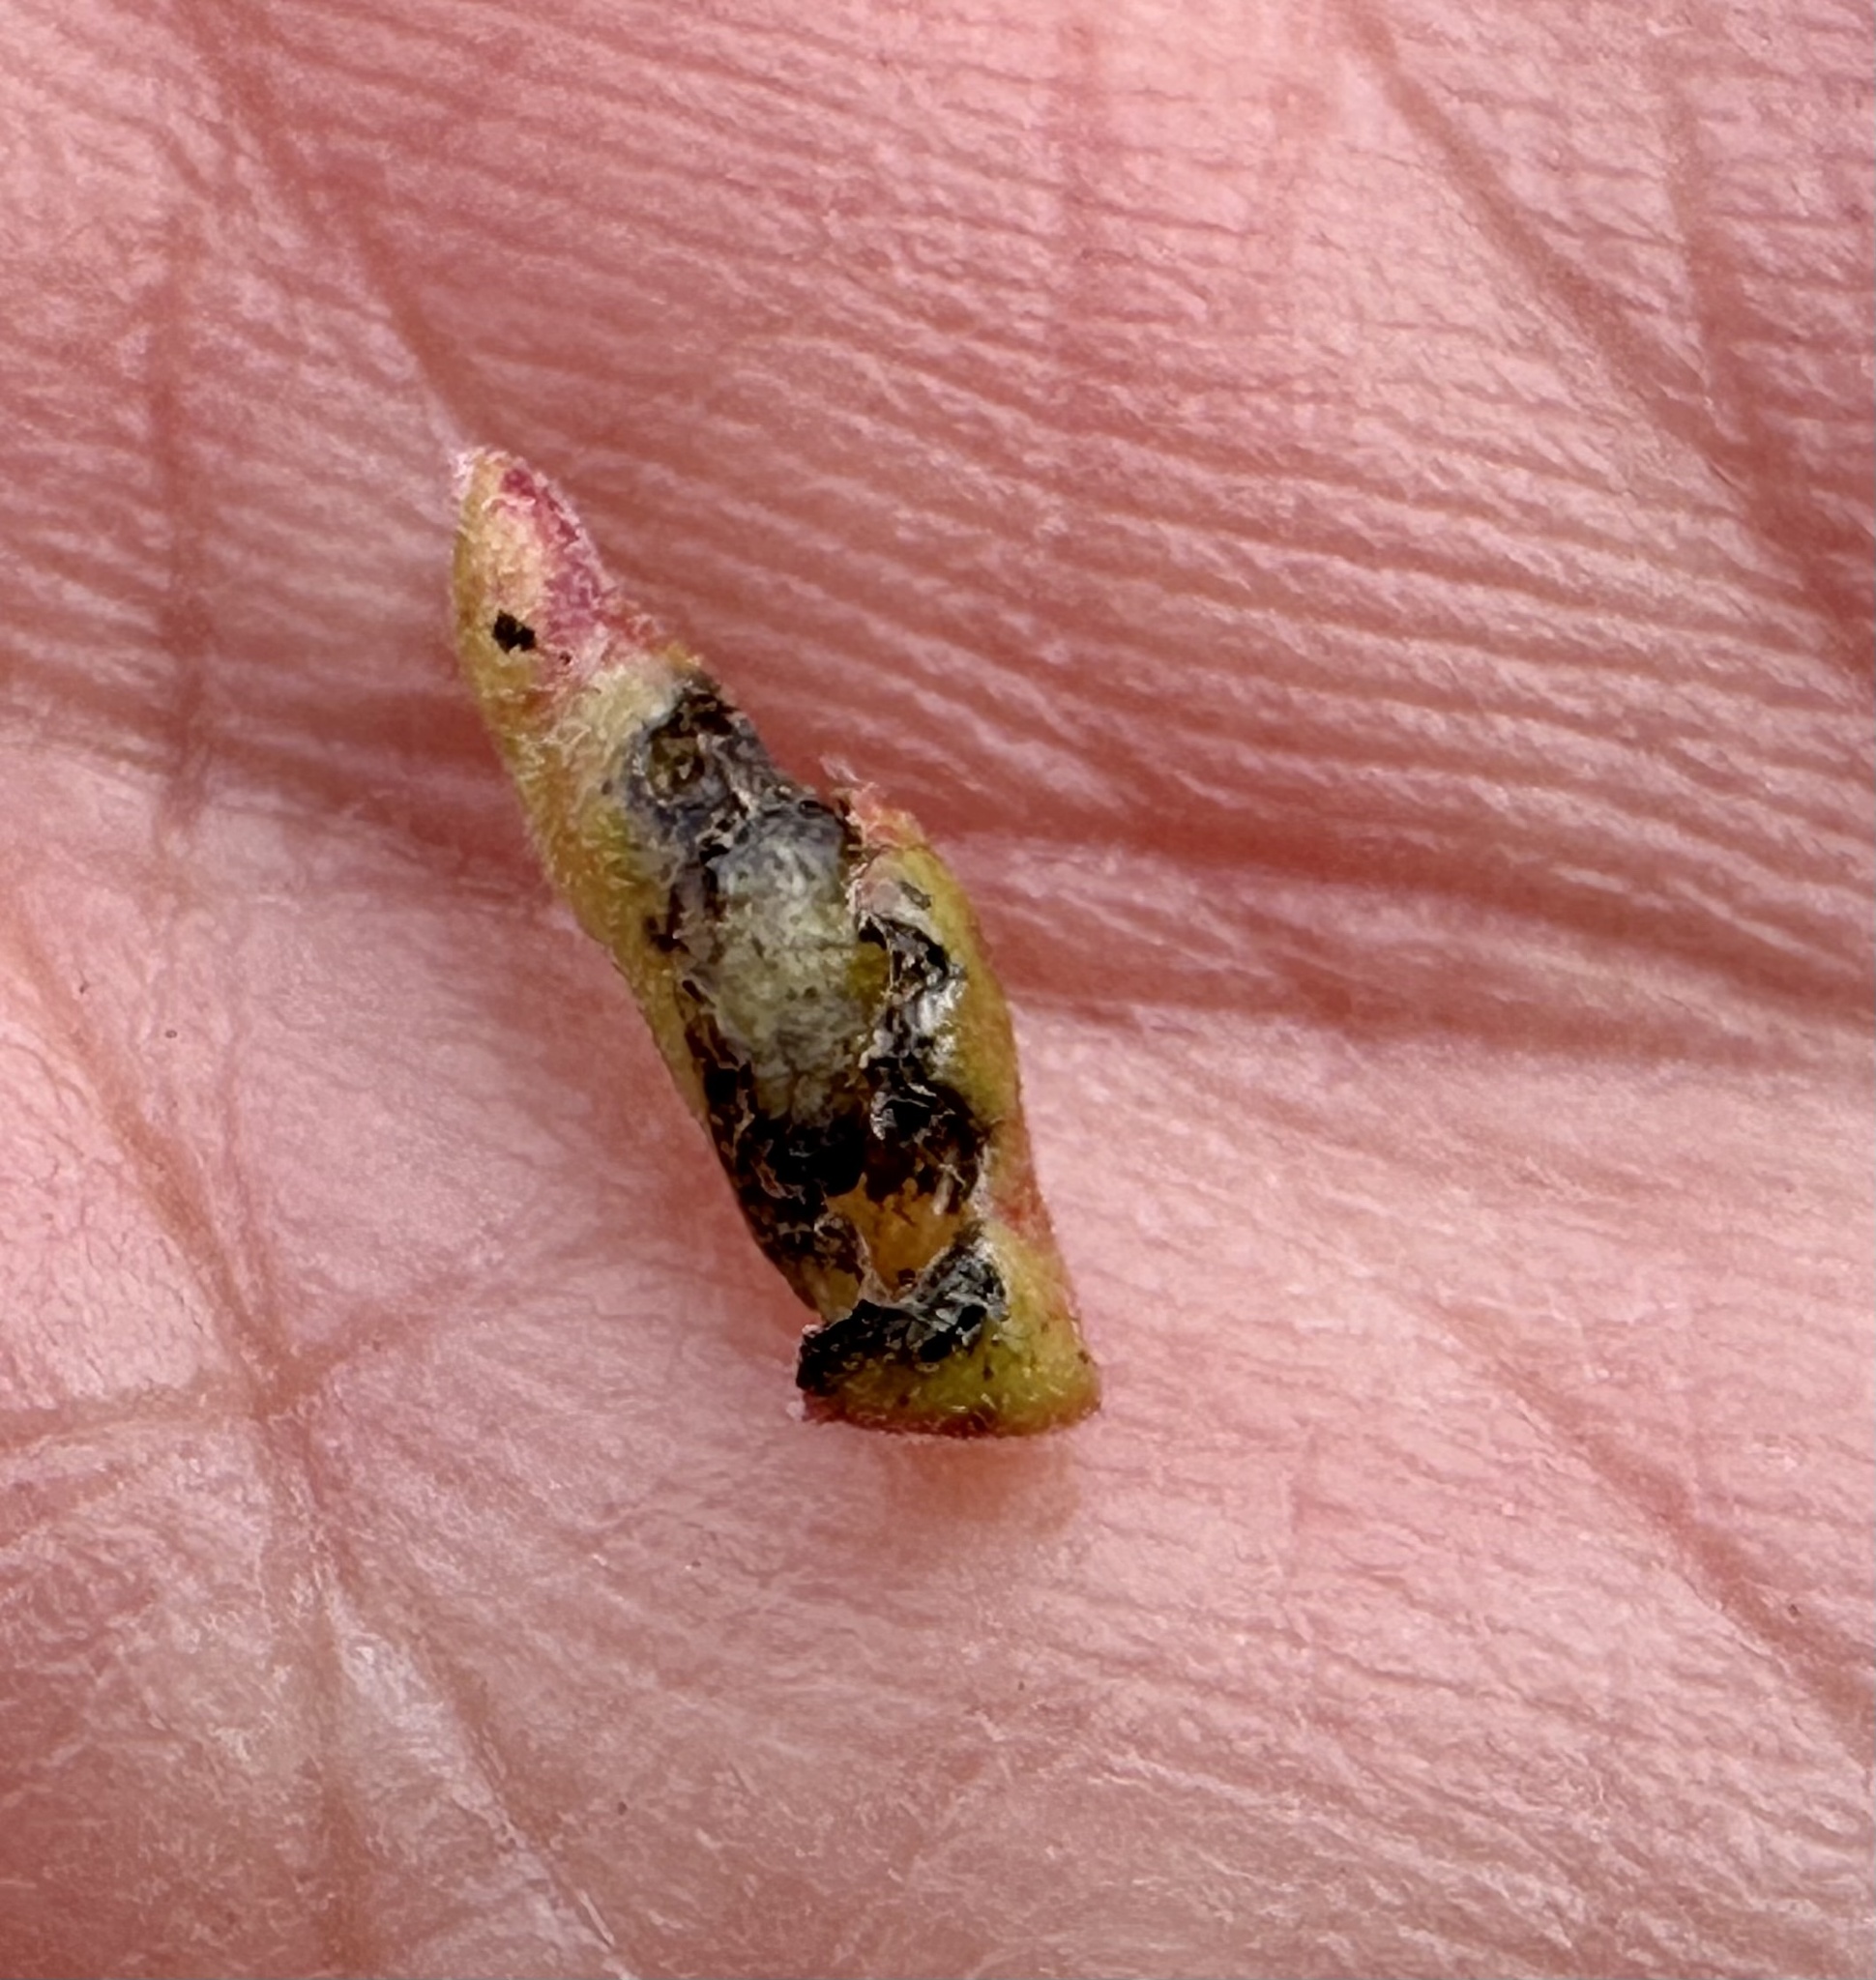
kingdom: Animalia
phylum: Arthropoda
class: Insecta
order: Hemiptera
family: Aphididae
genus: Tamalia
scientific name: Tamalia coweni
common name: Manzanita leafgall aphid
